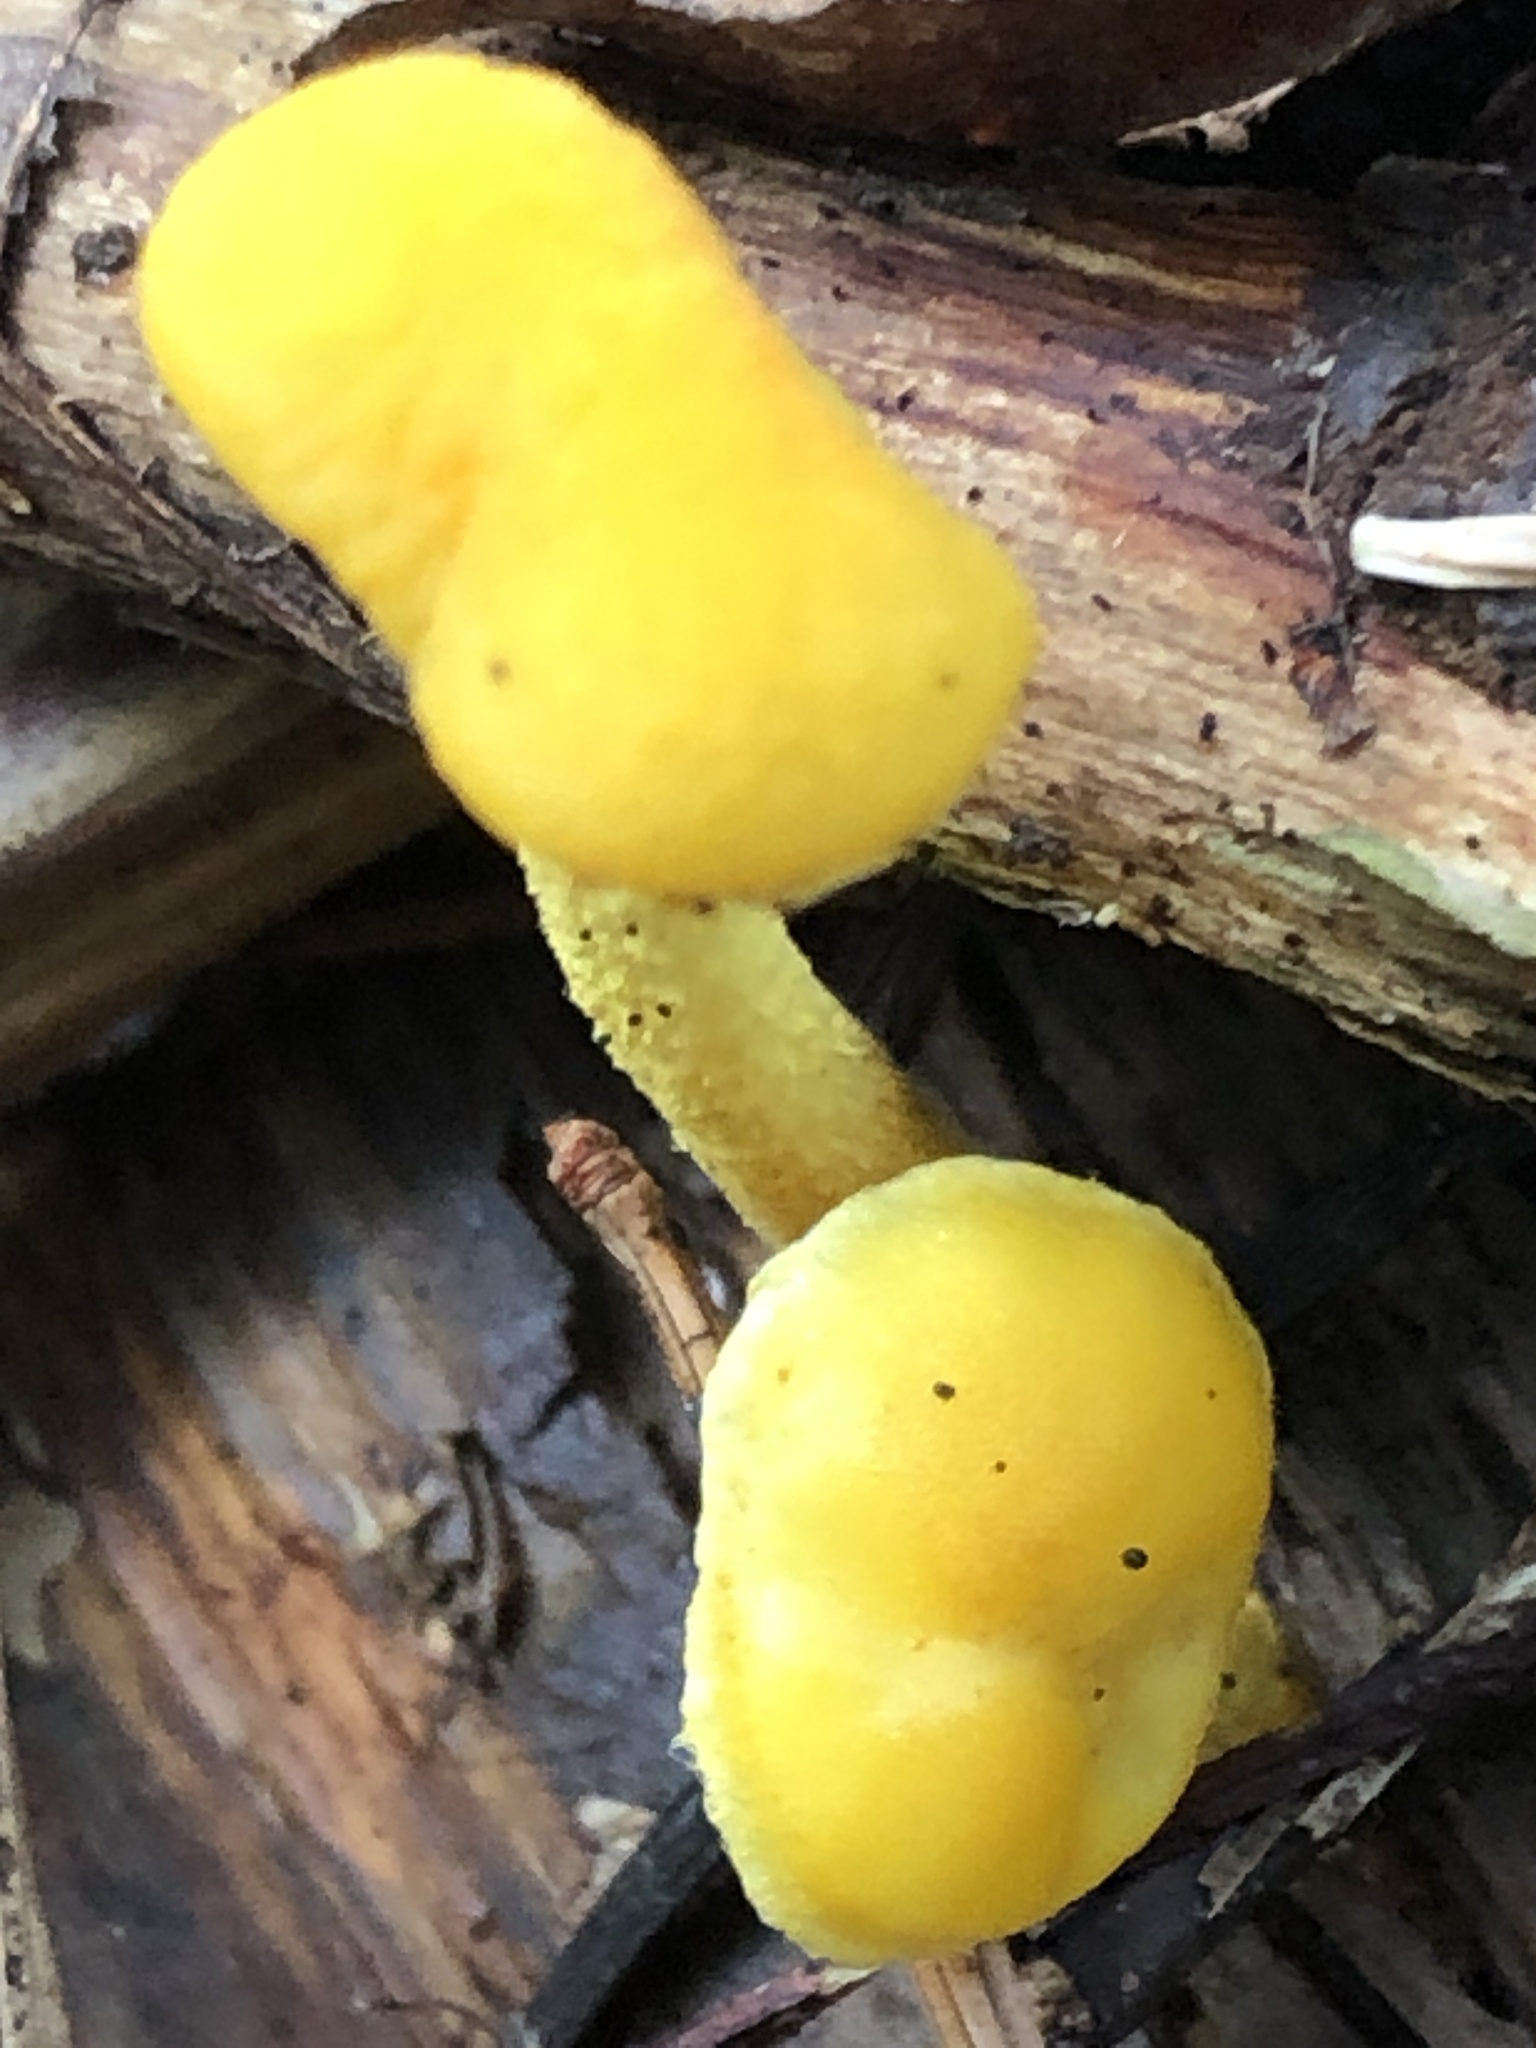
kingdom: Fungi
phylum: Basidiomycota
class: Agaricomycetes
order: Agaricales
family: Physalacriaceae
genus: Cyptotrama
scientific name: Cyptotrama chrysopepla
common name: Golden coincap
